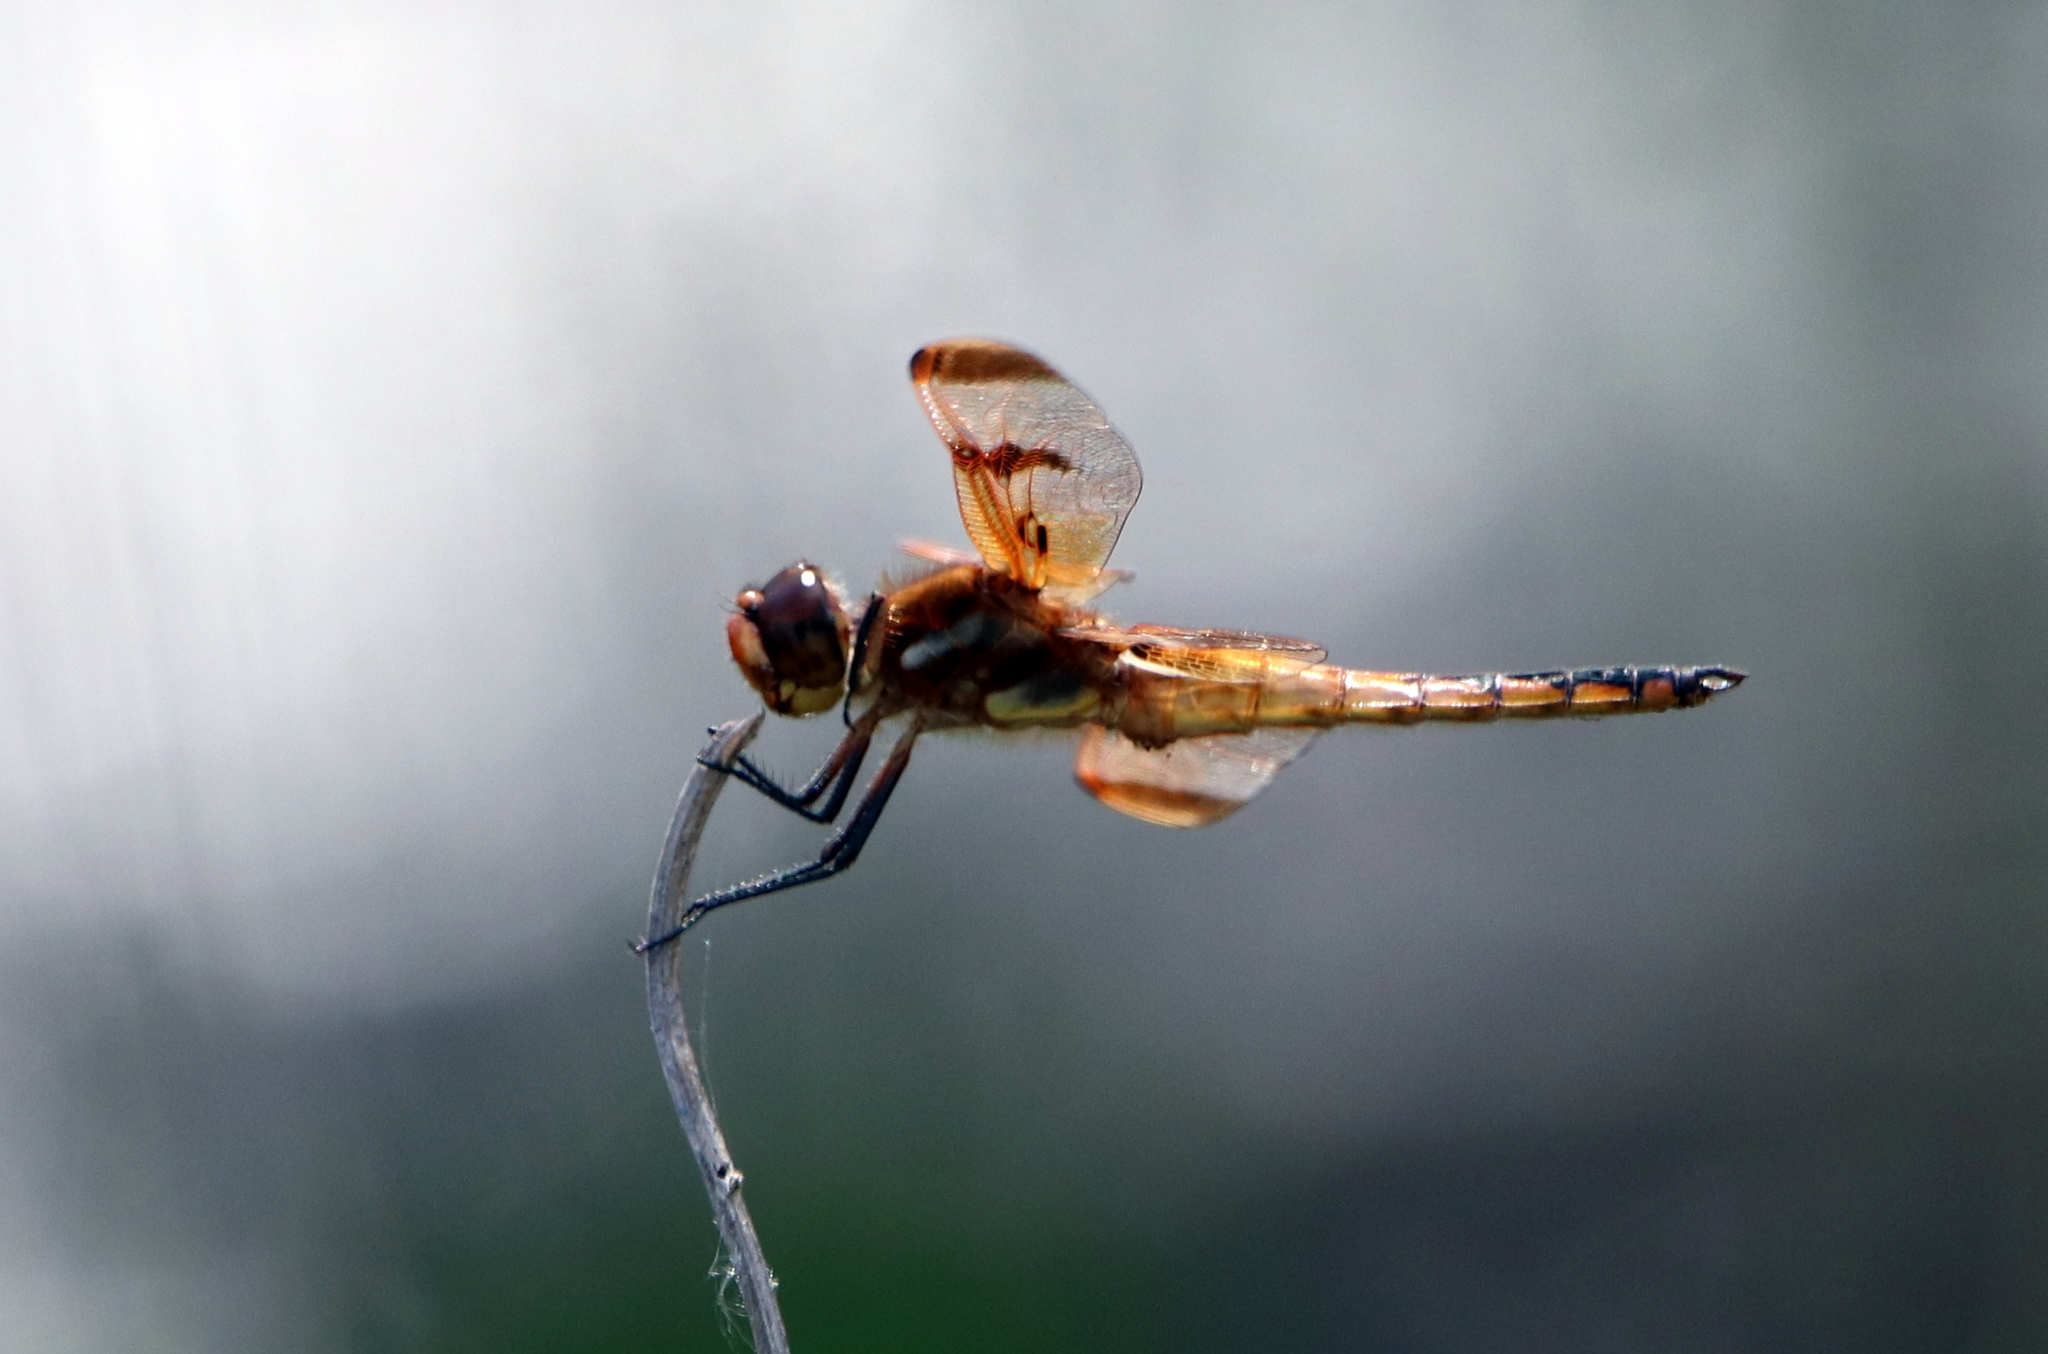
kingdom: Animalia
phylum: Arthropoda
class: Insecta
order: Odonata
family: Libellulidae
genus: Libellula
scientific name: Libellula semifasciata
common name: Painted skimmer
